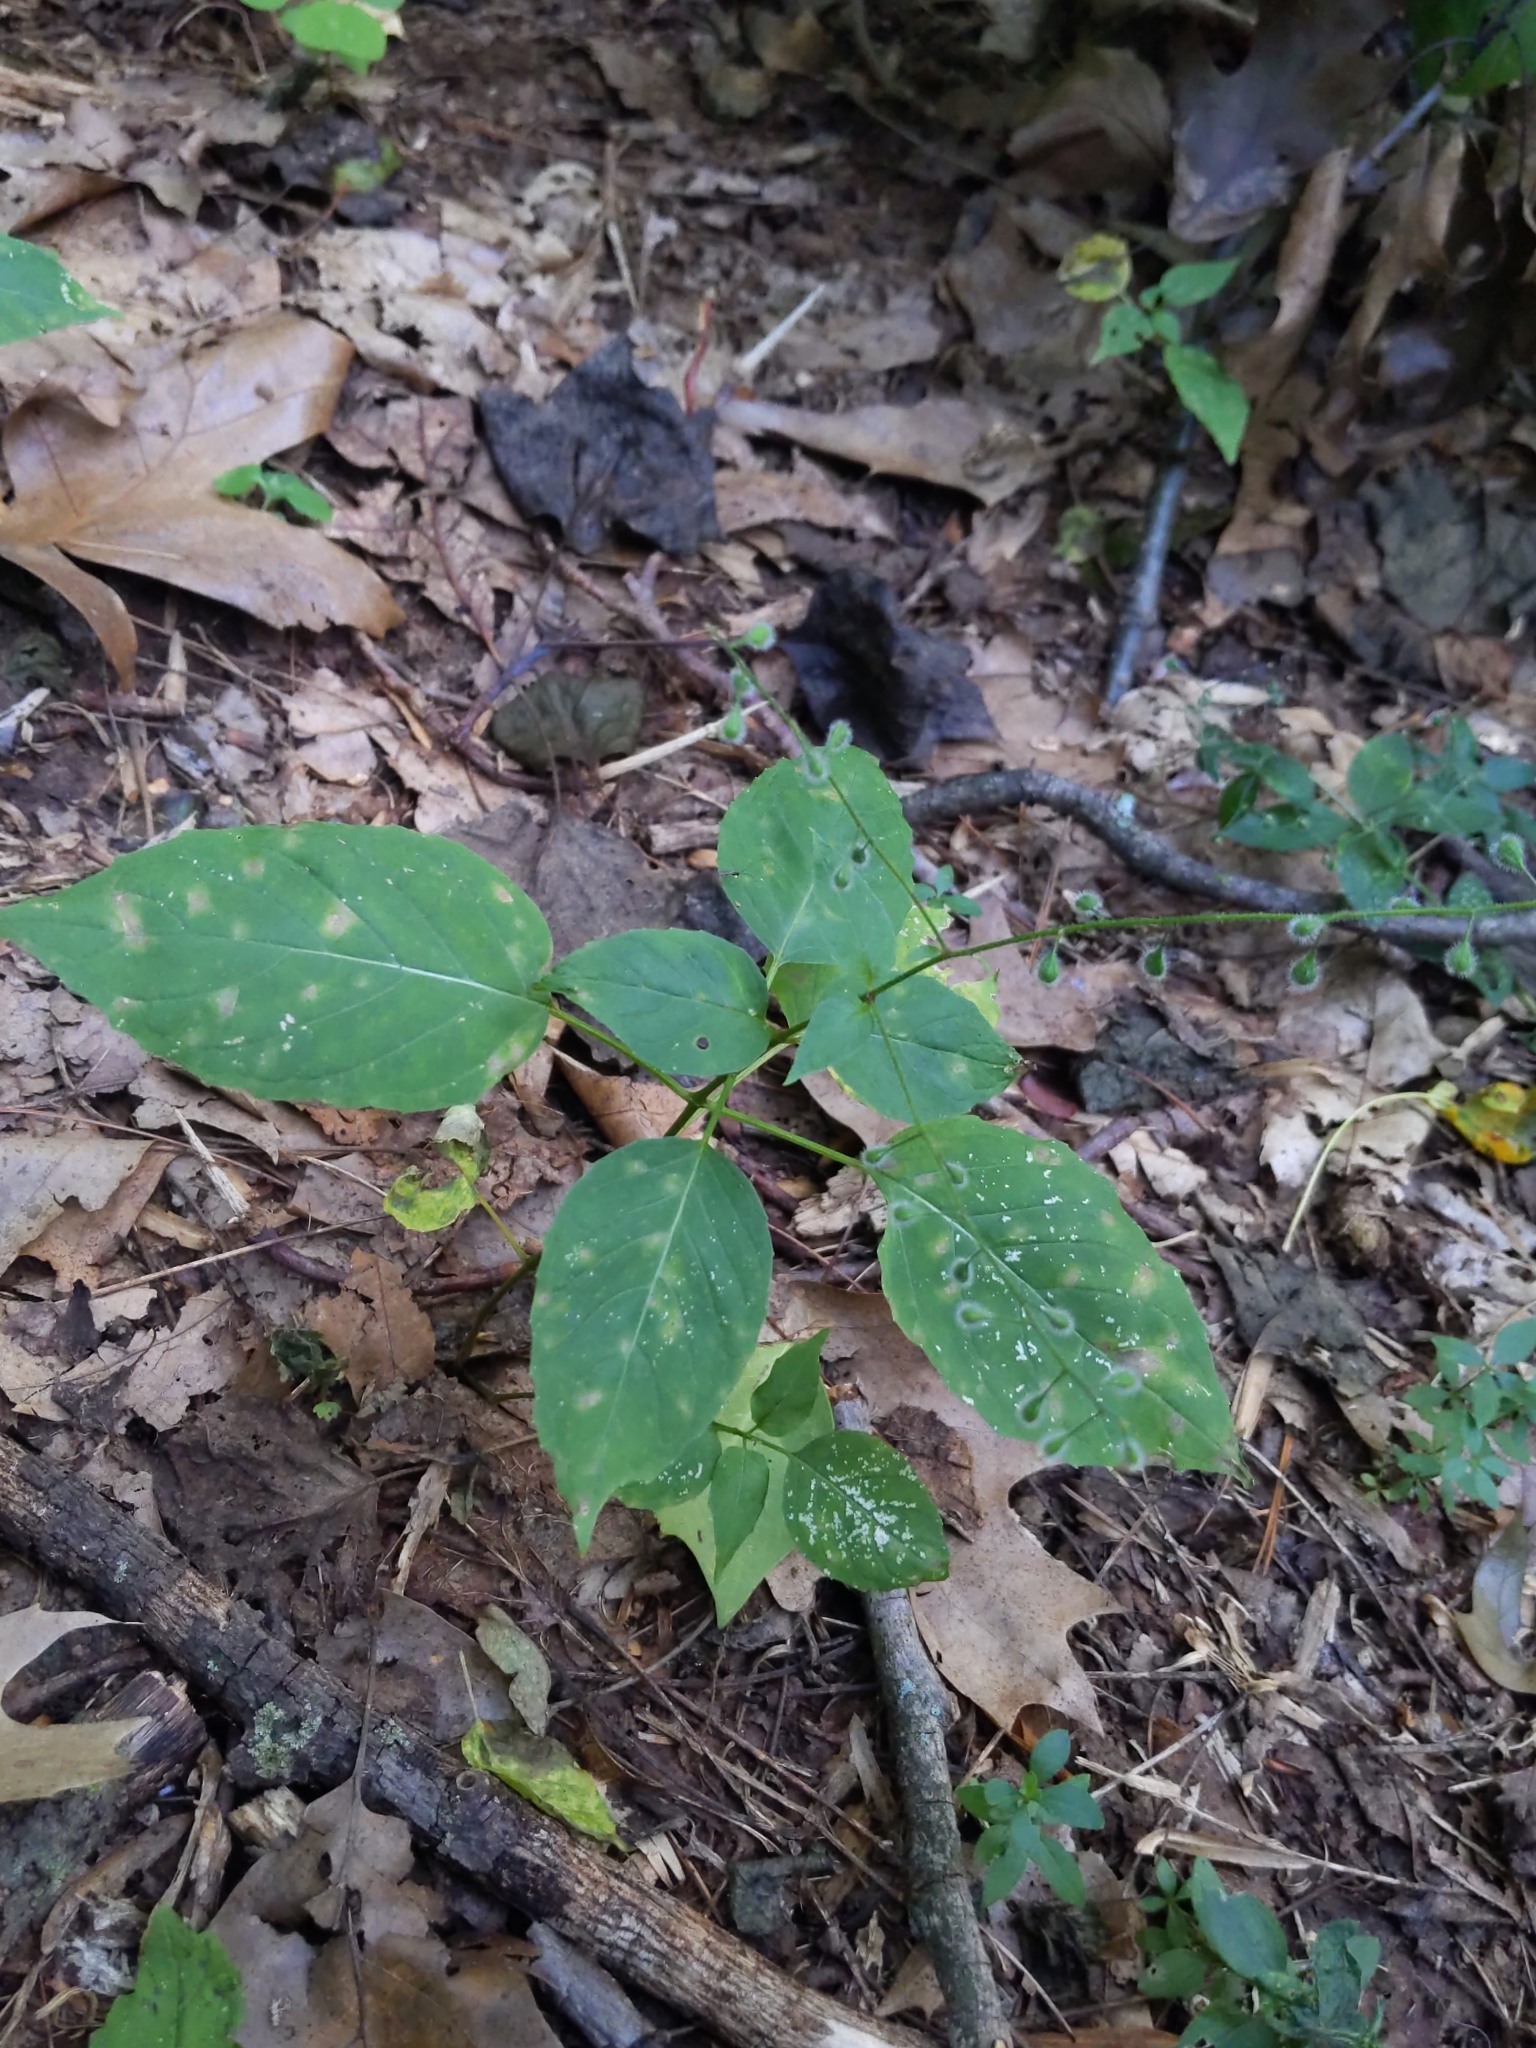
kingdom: Plantae
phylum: Tracheophyta
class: Magnoliopsida
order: Myrtales
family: Onagraceae
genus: Circaea
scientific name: Circaea canadensis
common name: Broad-leaved enchanter's nightshade
